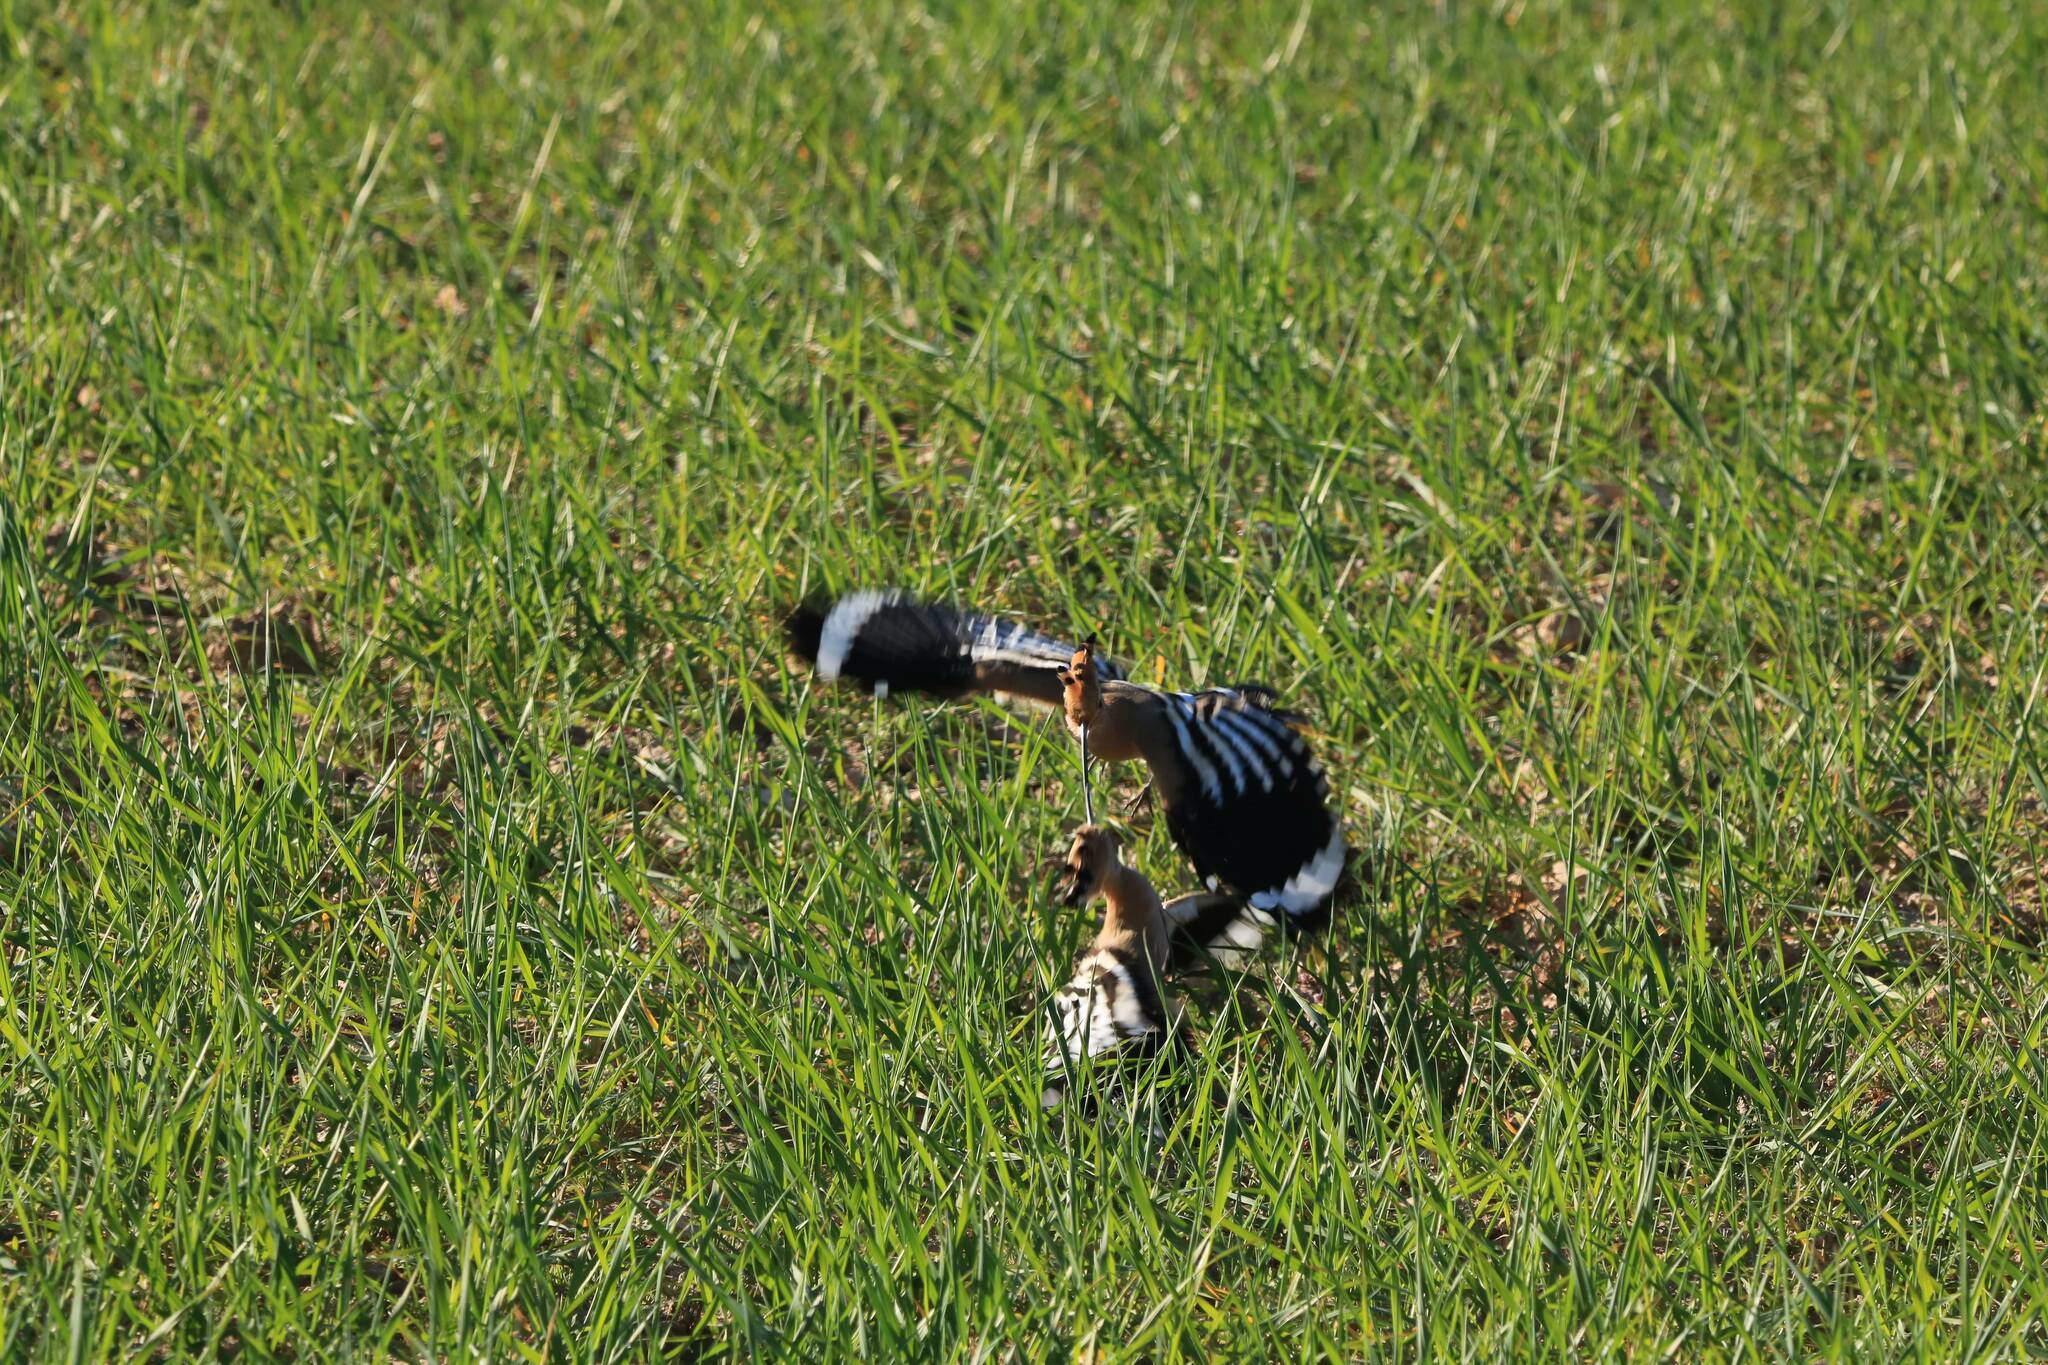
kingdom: Animalia
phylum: Chordata
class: Aves
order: Bucerotiformes
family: Upupidae
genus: Upupa
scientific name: Upupa epops
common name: Eurasian hoopoe
